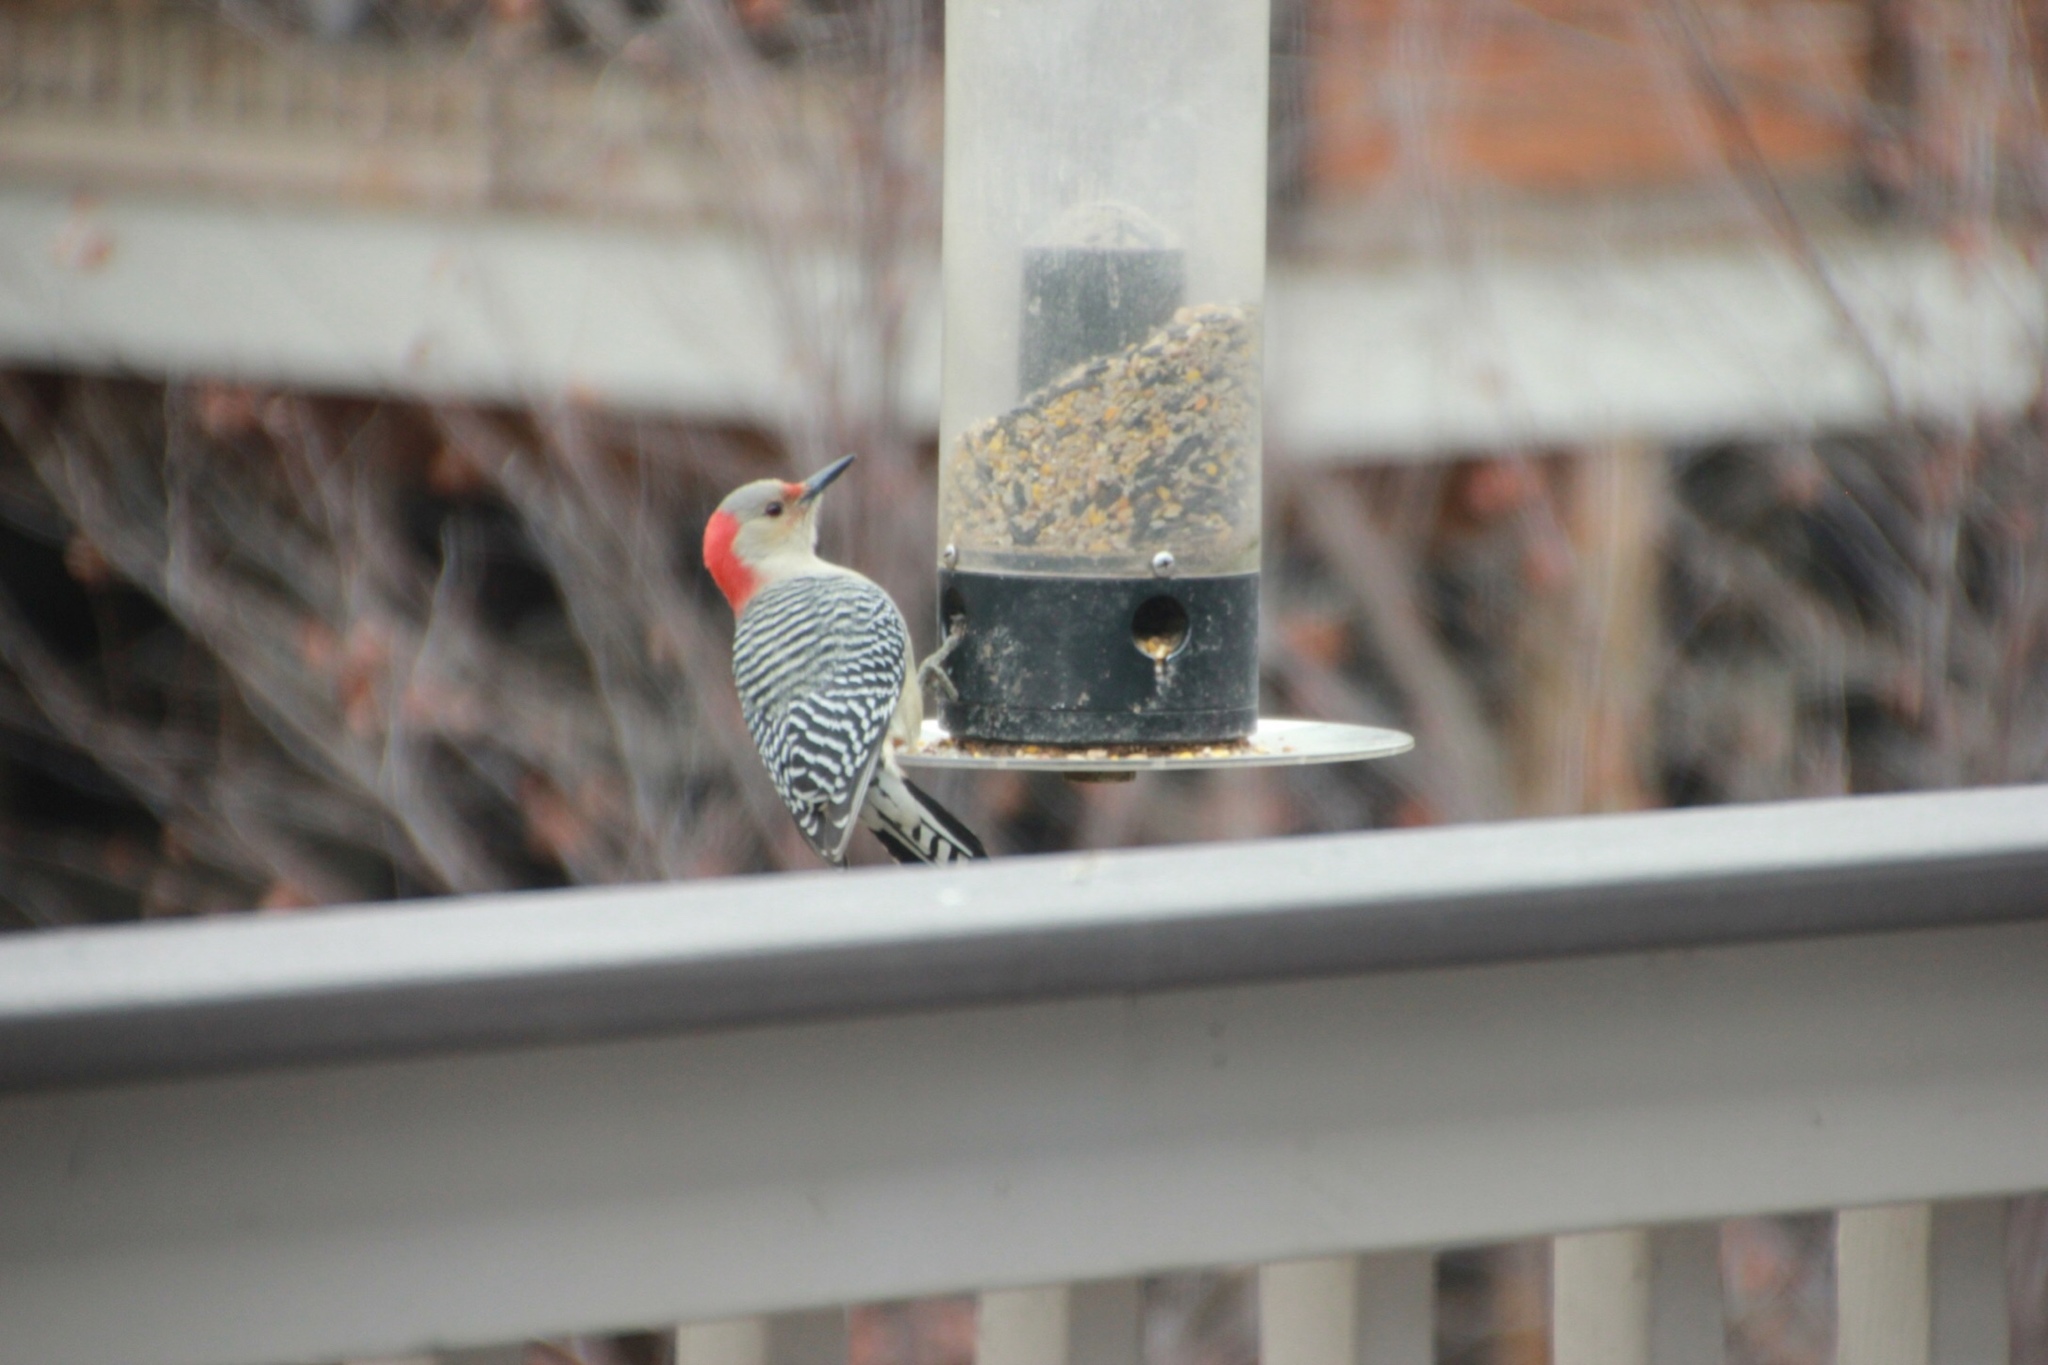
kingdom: Animalia
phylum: Chordata
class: Aves
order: Piciformes
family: Picidae
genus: Melanerpes
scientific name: Melanerpes carolinus
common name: Red-bellied woodpecker
